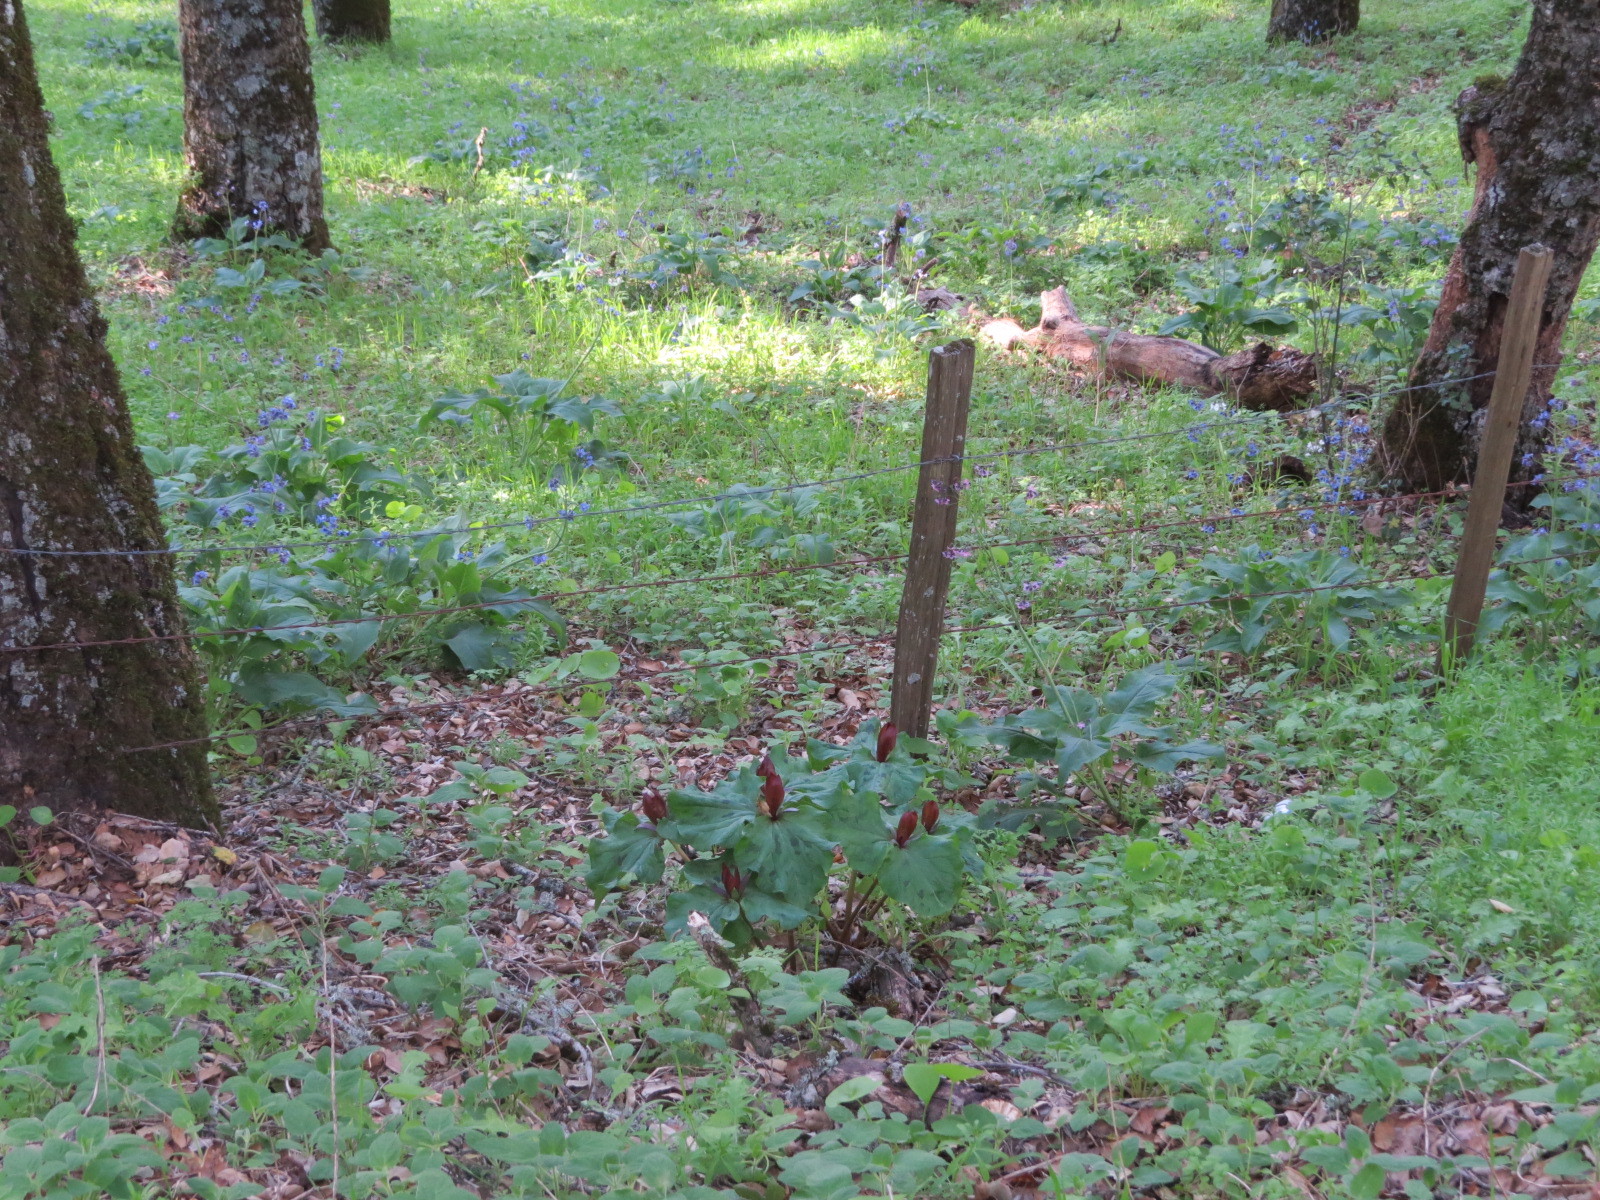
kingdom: Plantae
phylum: Tracheophyta
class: Liliopsida
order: Liliales
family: Melanthiaceae
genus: Trillium
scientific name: Trillium chloropetalum
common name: Giant trillium
